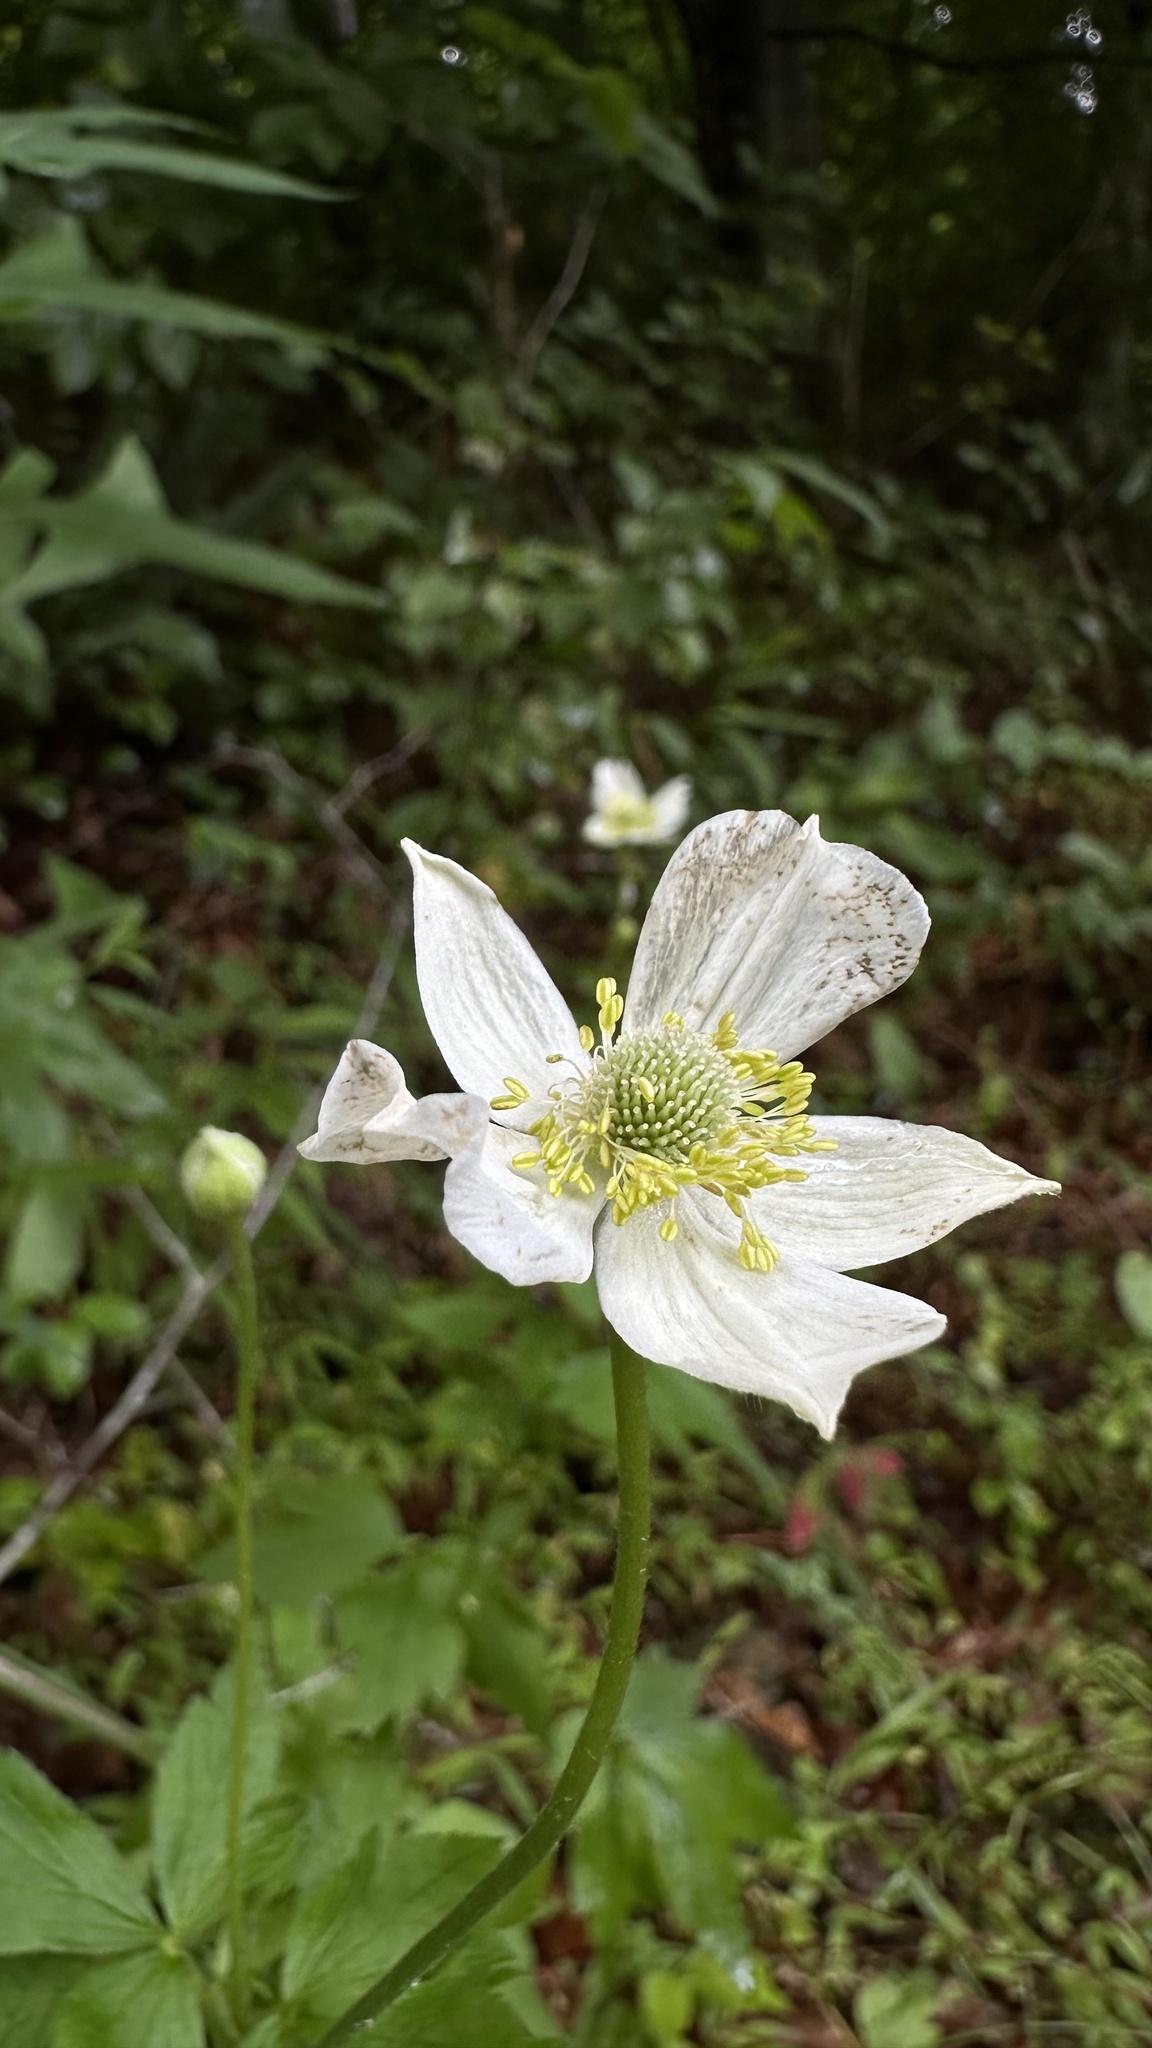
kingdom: Plantae
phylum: Tracheophyta
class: Magnoliopsida
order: Ranunculales
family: Ranunculaceae
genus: Anemone
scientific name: Anemone virginiana
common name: Tall anemone
